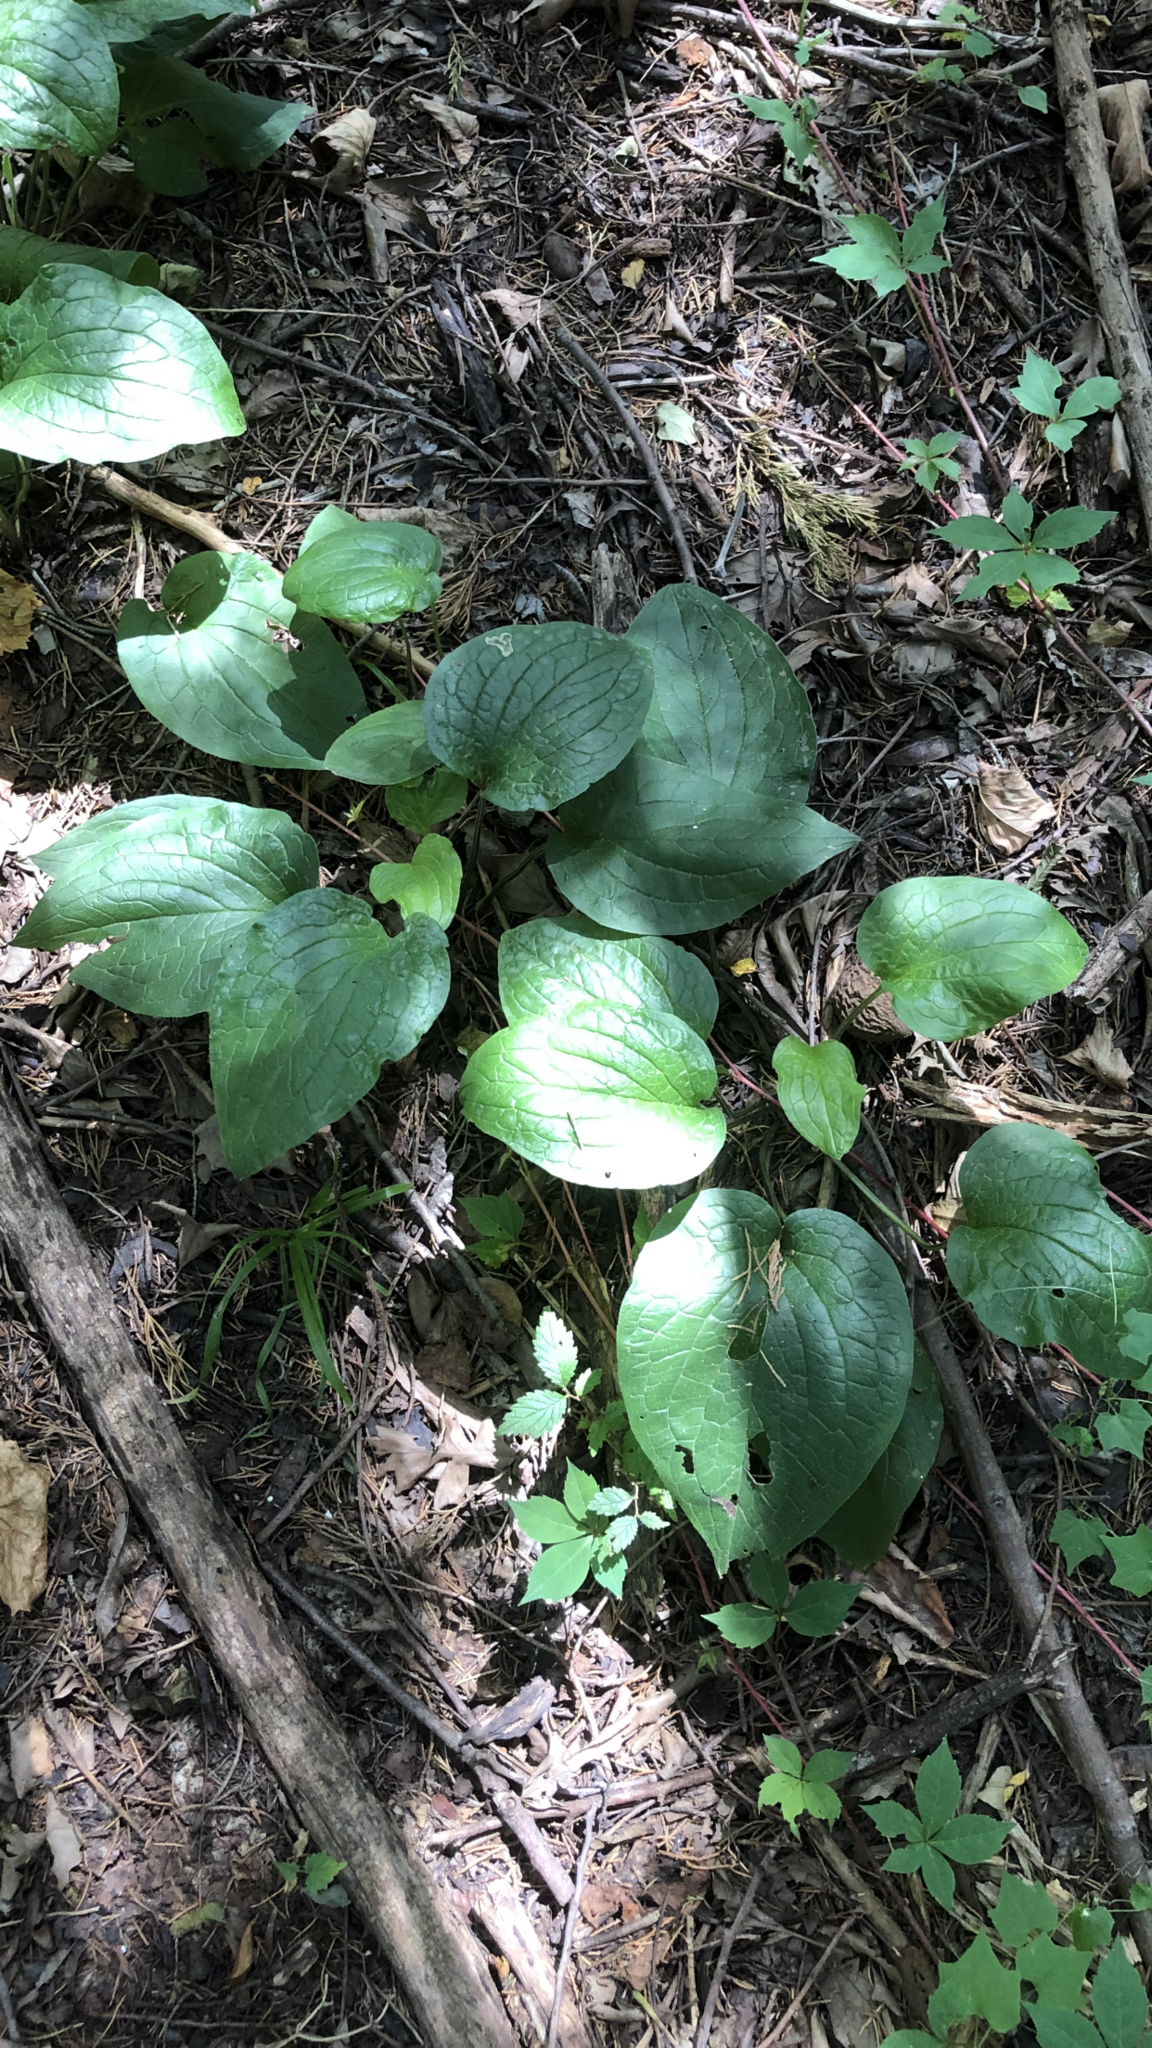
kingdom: Plantae
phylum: Tracheophyta
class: Liliopsida
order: Liliales
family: Smilacaceae
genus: Smilax
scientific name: Smilax tamnoides
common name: Hellfetter
